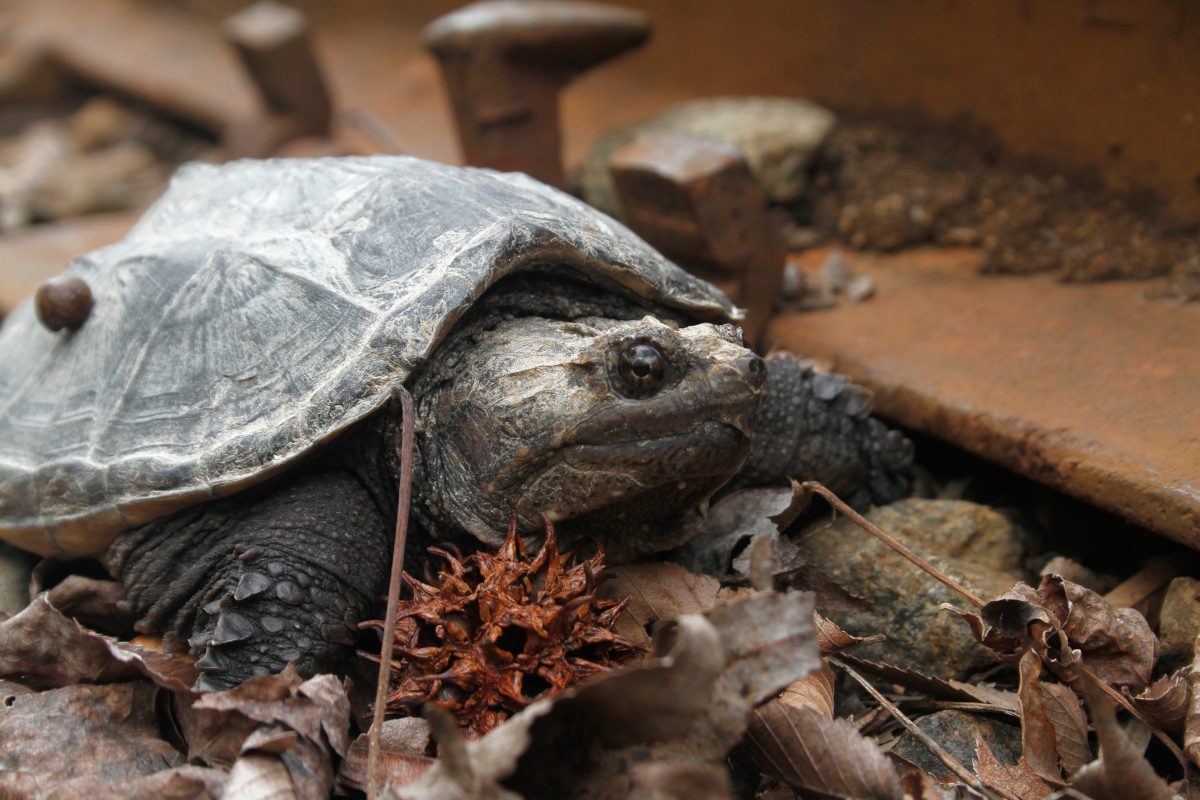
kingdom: Animalia
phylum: Chordata
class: Testudines
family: Chelydridae
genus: Chelydra
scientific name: Chelydra serpentina
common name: Common snapping turtle
